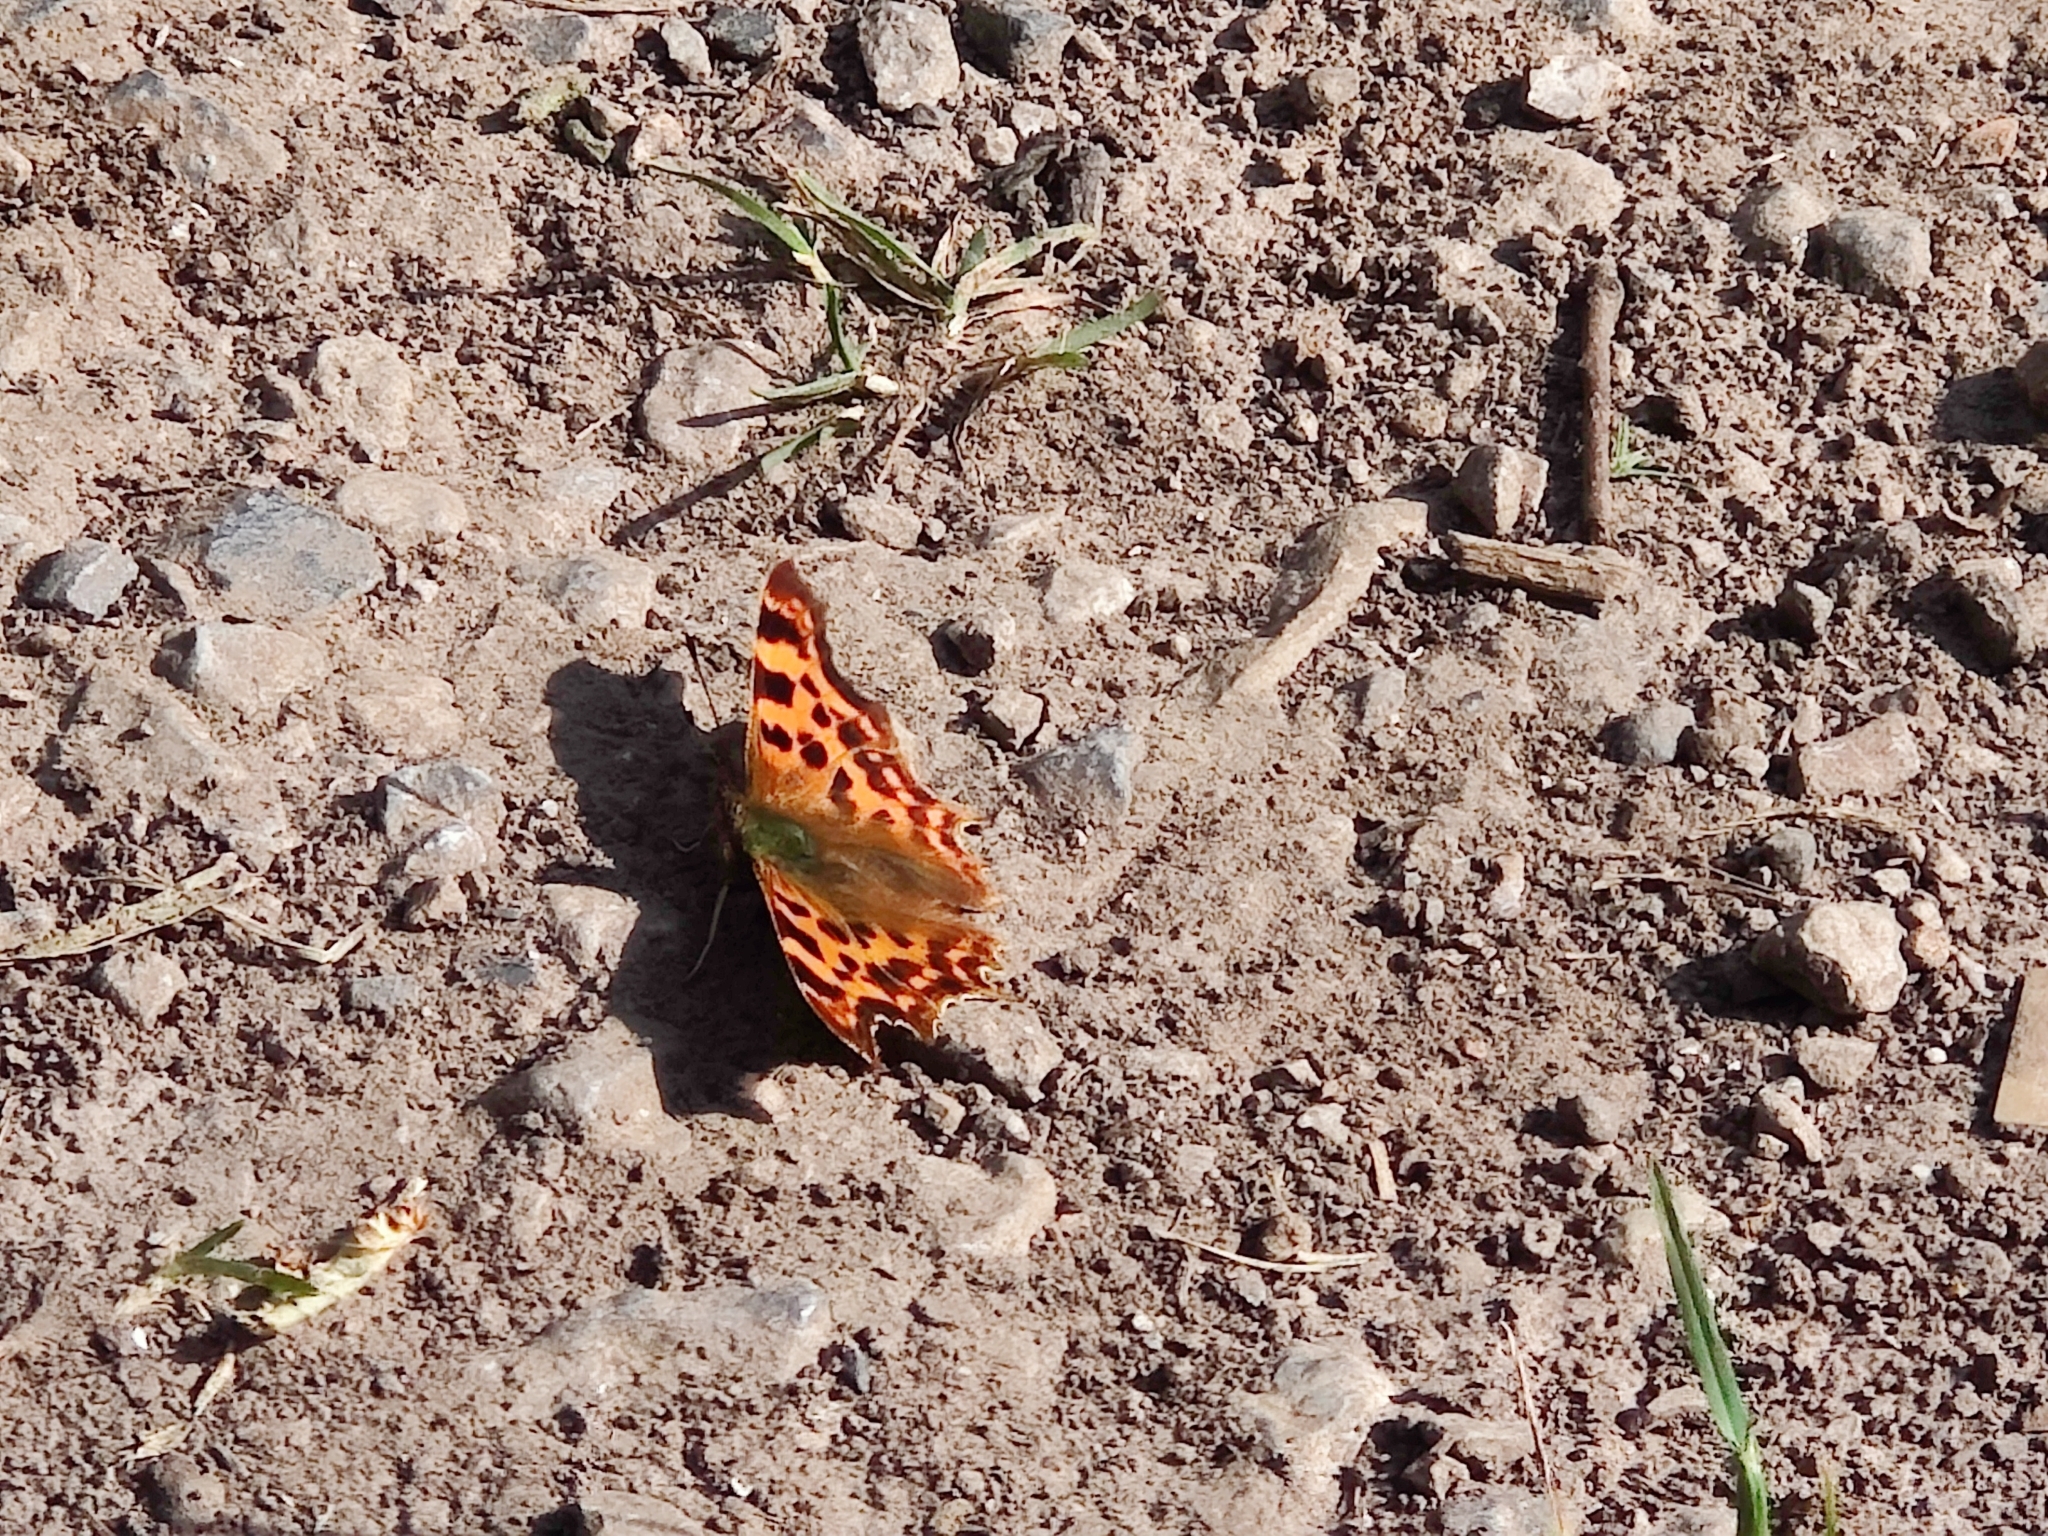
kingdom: Animalia
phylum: Arthropoda
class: Insecta
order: Lepidoptera
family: Nymphalidae
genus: Polygonia
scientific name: Polygonia c-album
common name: Comma
